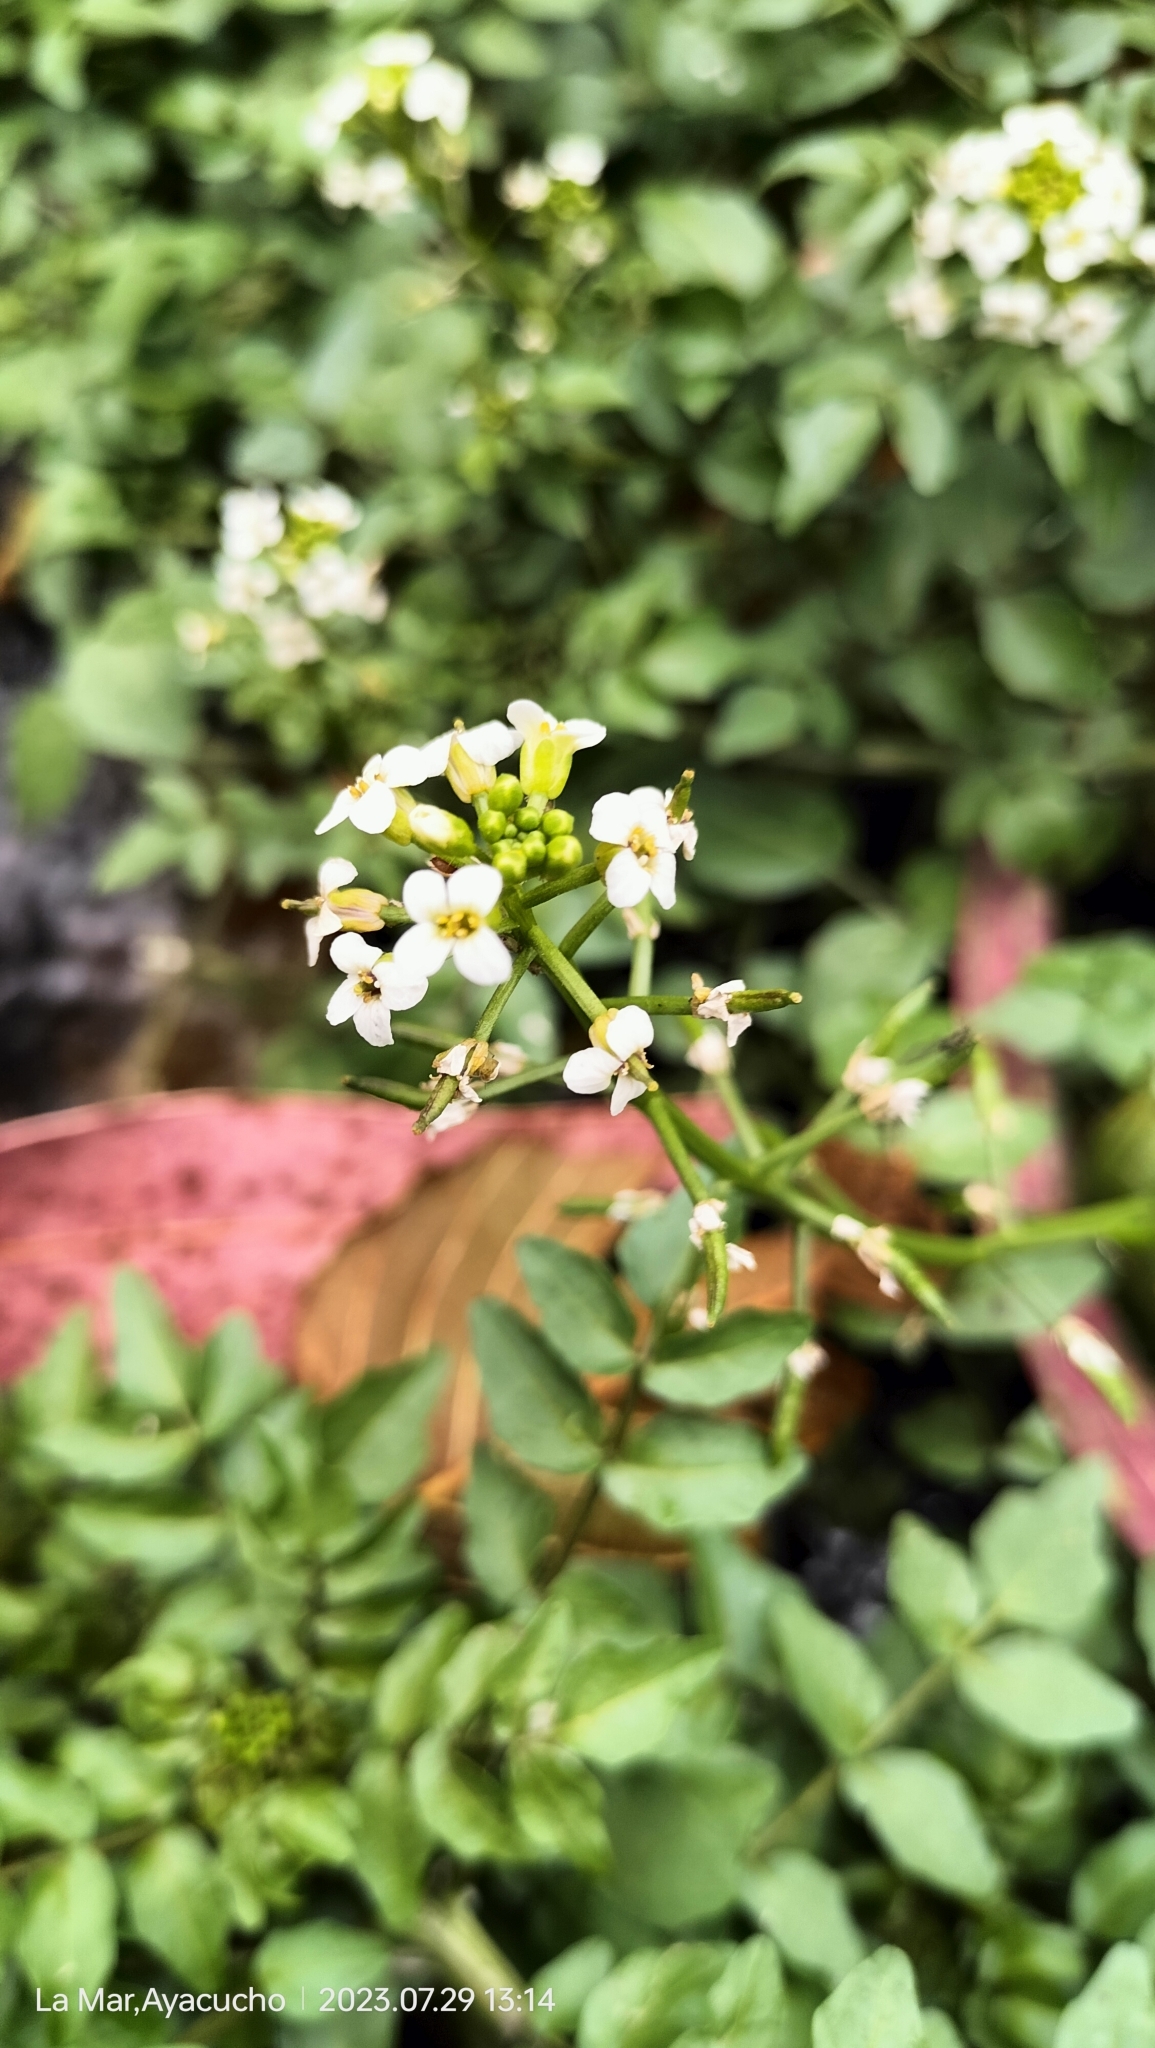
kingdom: Plantae
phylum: Tracheophyta
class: Magnoliopsida
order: Brassicales
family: Brassicaceae
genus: Nasturtium
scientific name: Nasturtium officinale
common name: Watercress
